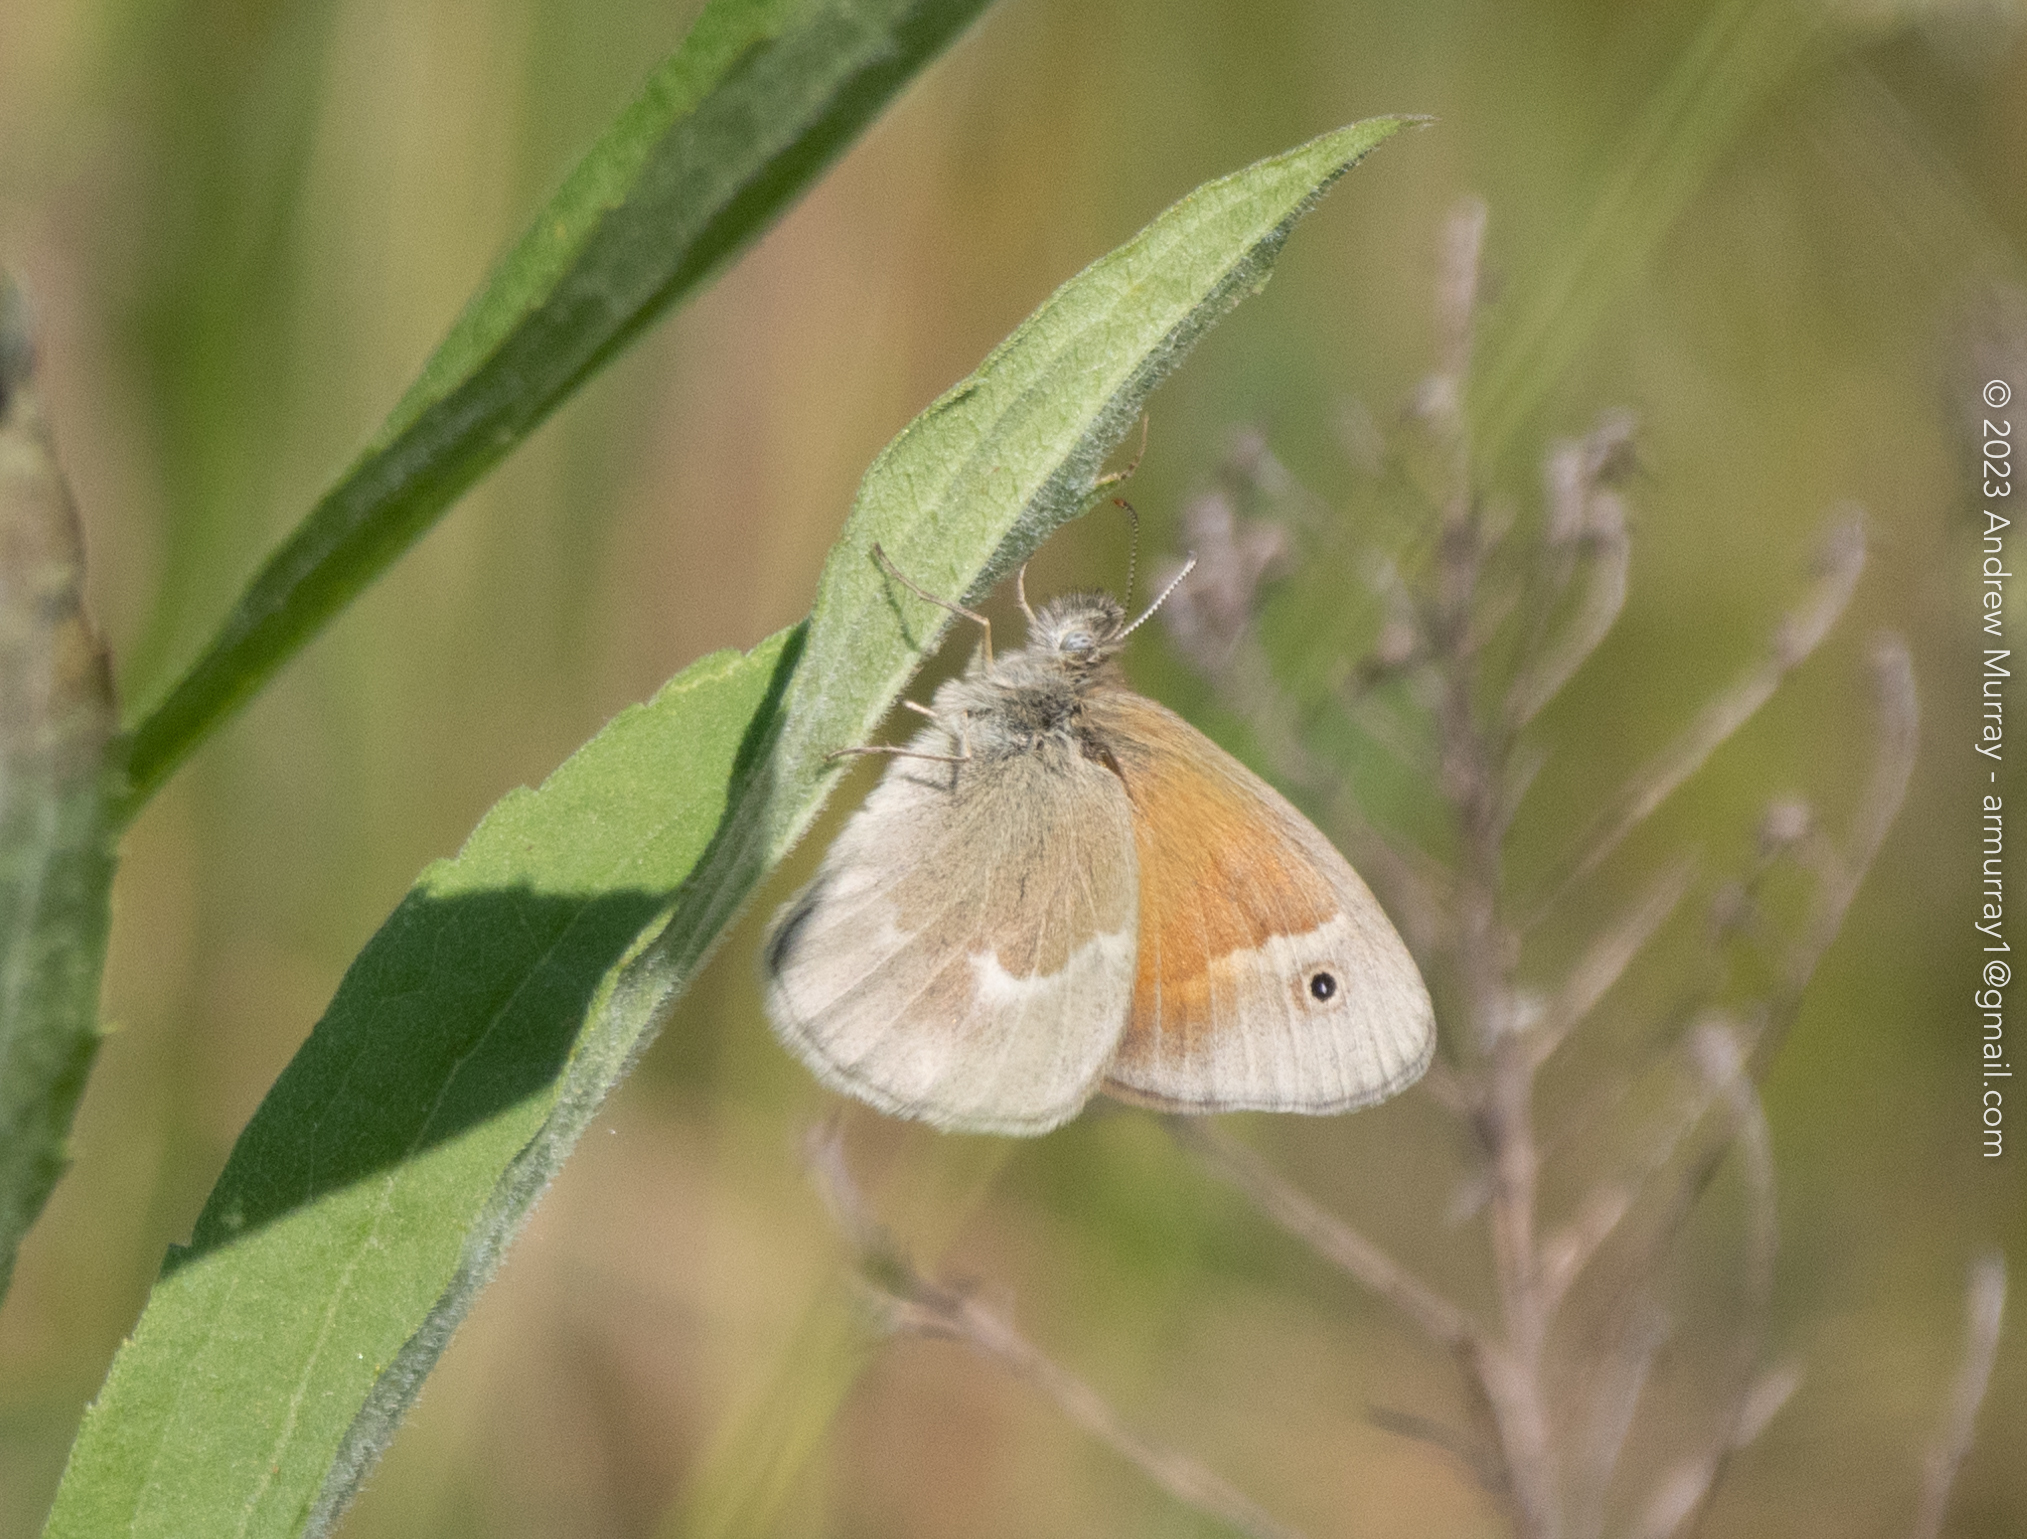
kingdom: Animalia
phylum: Arthropoda
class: Insecta
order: Lepidoptera
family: Nymphalidae
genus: Coenonympha
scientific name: Coenonympha california
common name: Common ringlet
